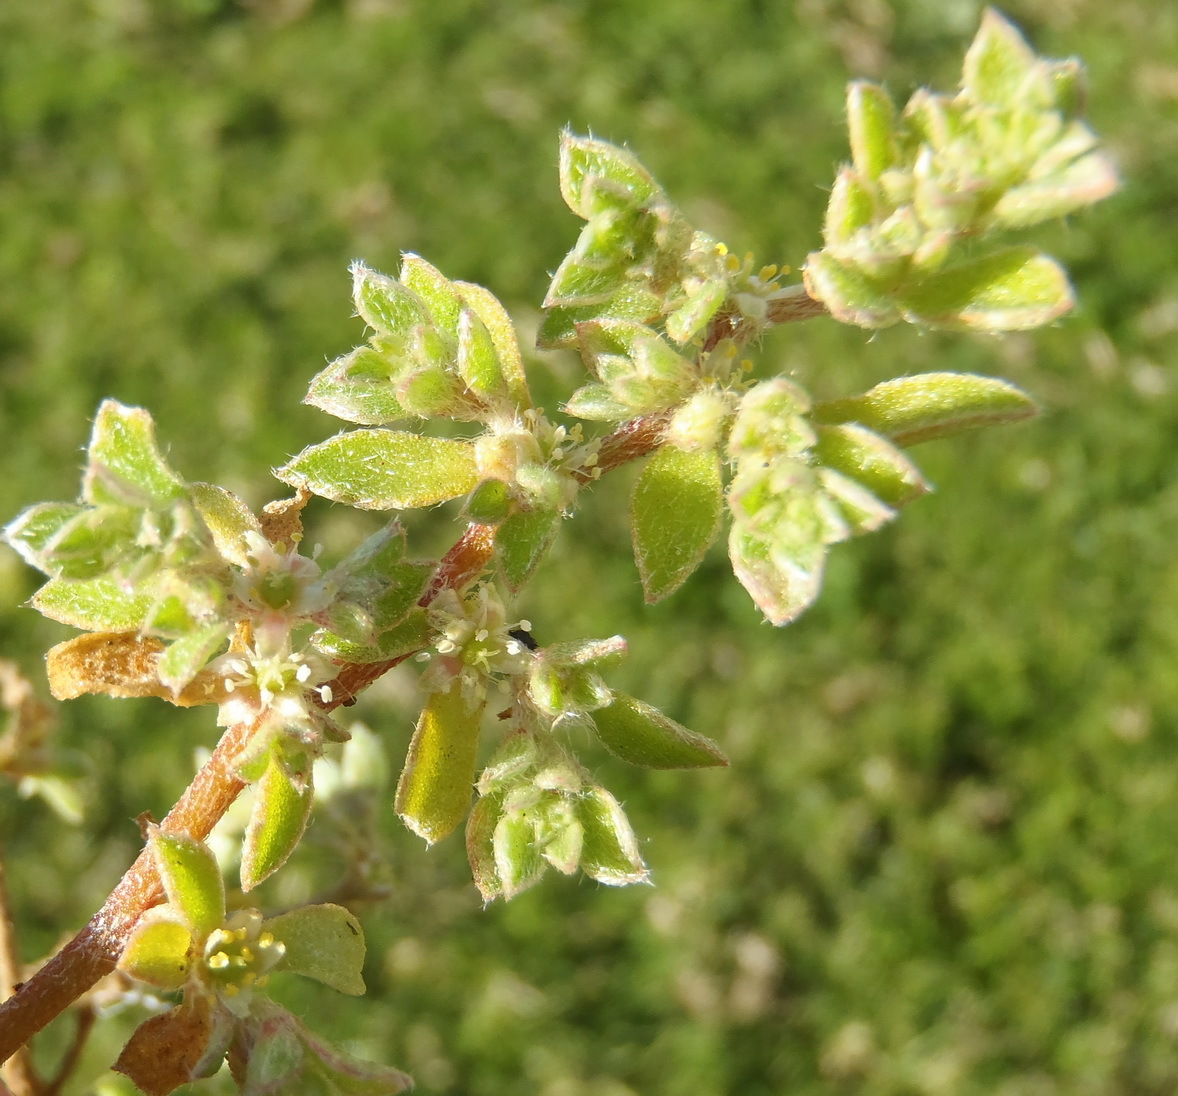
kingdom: Plantae
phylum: Tracheophyta
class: Magnoliopsida
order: Caryophyllales
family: Aizoaceae
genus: Aizoon
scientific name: Aizoon secundum
